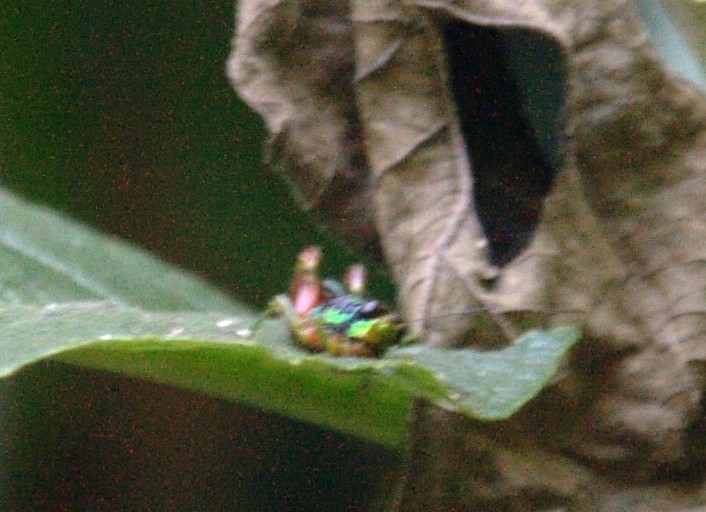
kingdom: Animalia
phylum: Arthropoda
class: Insecta
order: Orthoptera
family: Romaleidae
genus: Taeniophora
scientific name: Taeniophora femorata
